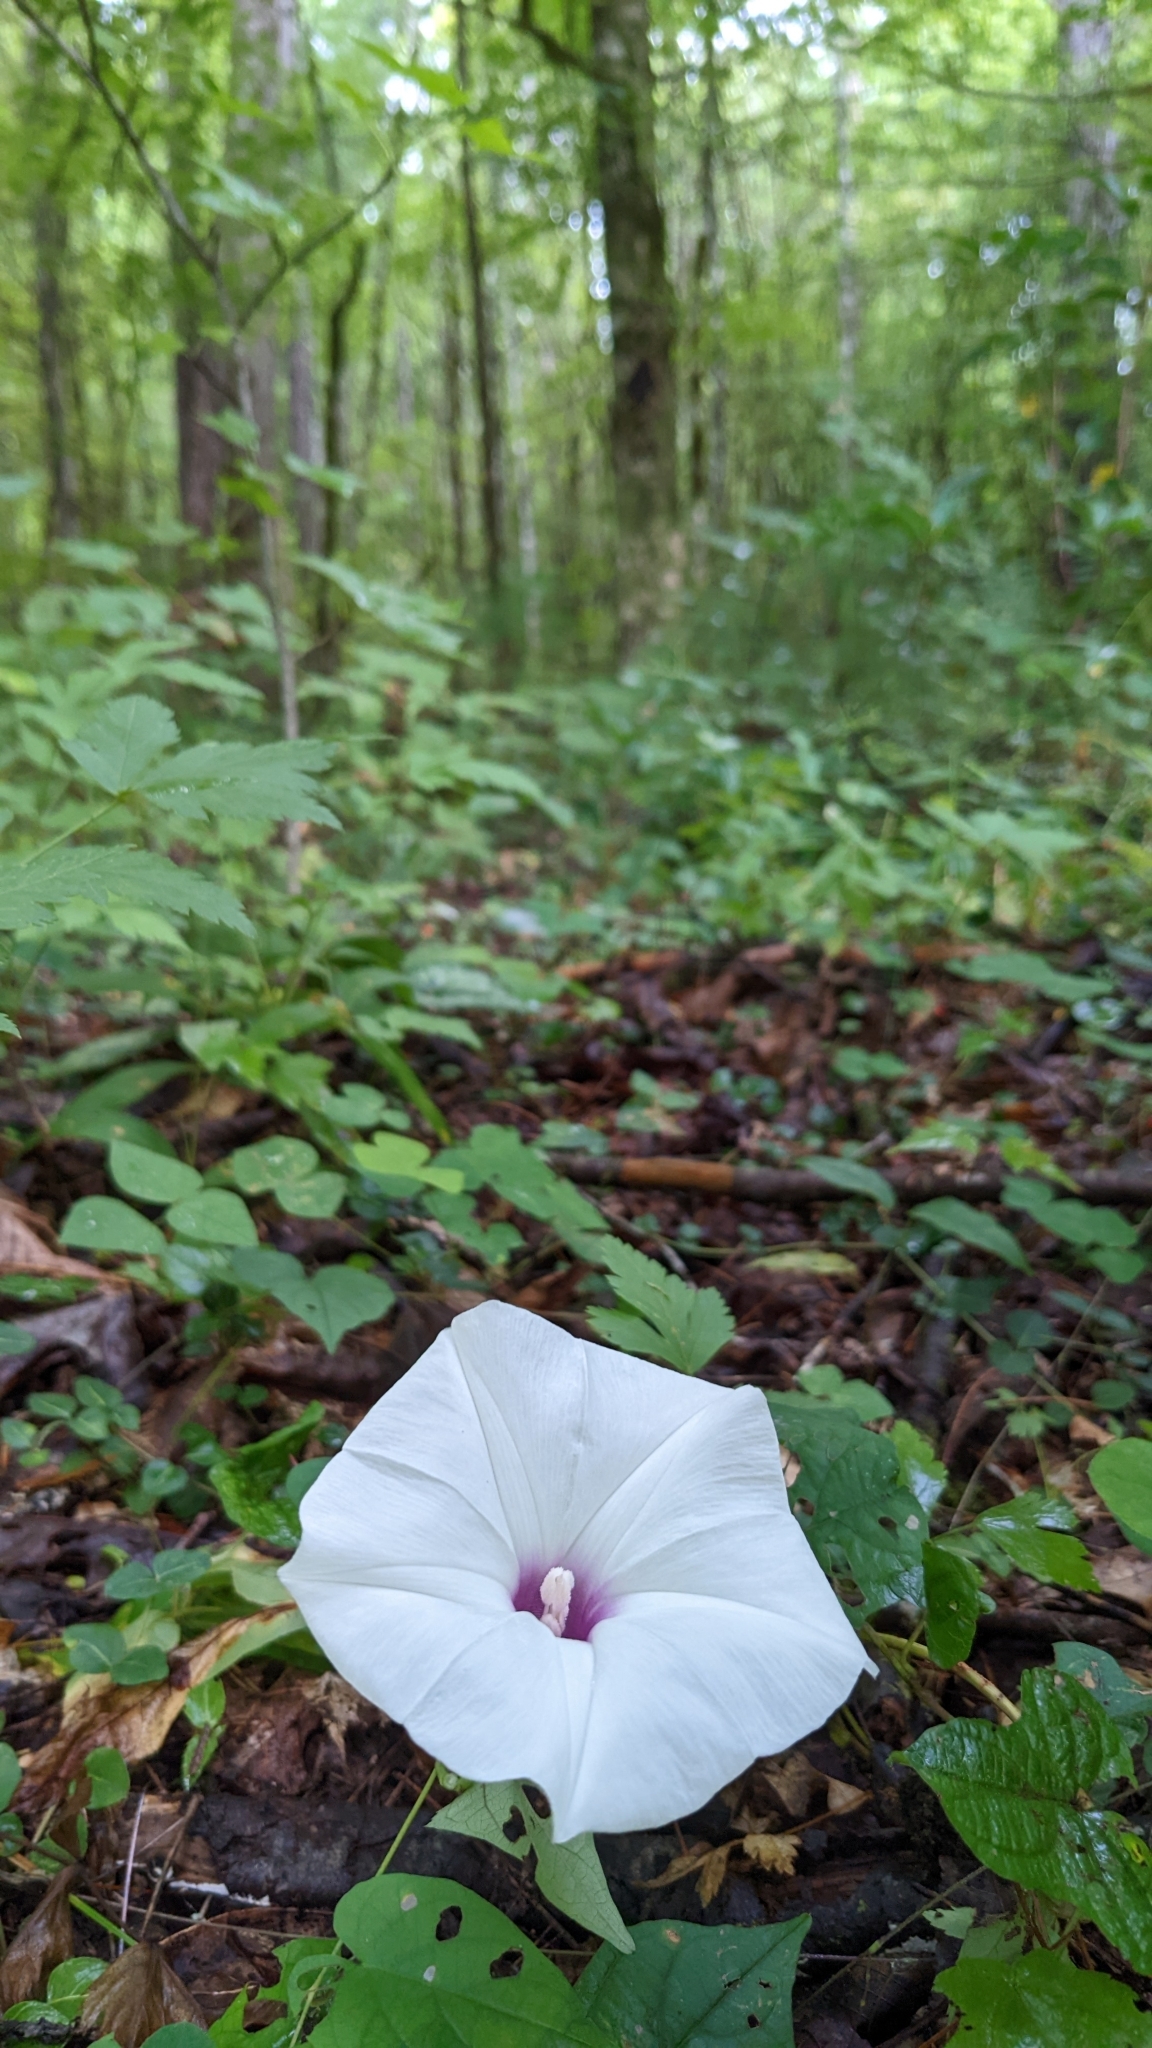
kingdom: Plantae
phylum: Tracheophyta
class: Magnoliopsida
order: Solanales
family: Convolvulaceae
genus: Ipomoea
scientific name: Ipomoea pandurata
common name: Man-of-the-earth
